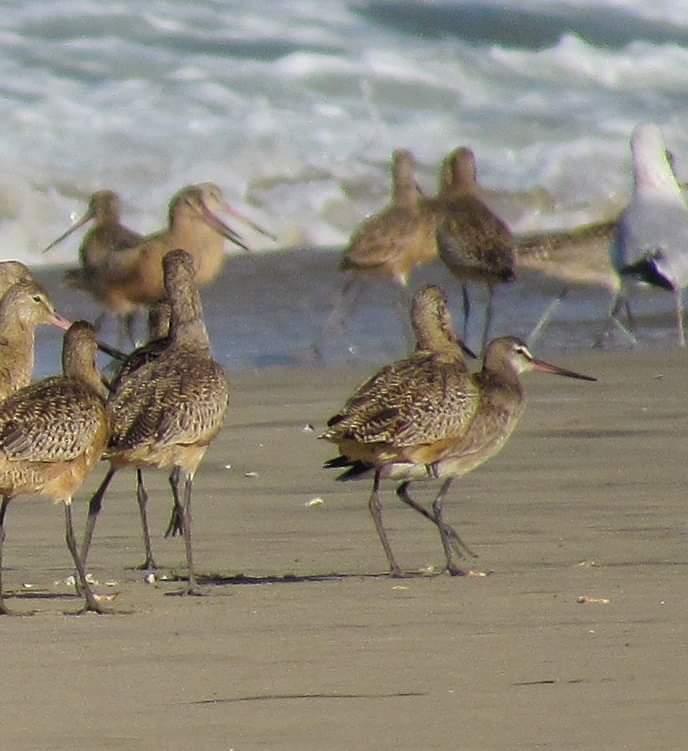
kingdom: Animalia
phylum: Chordata
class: Aves
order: Charadriiformes
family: Scolopacidae
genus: Limosa
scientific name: Limosa haemastica
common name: Hudsonian godwit
